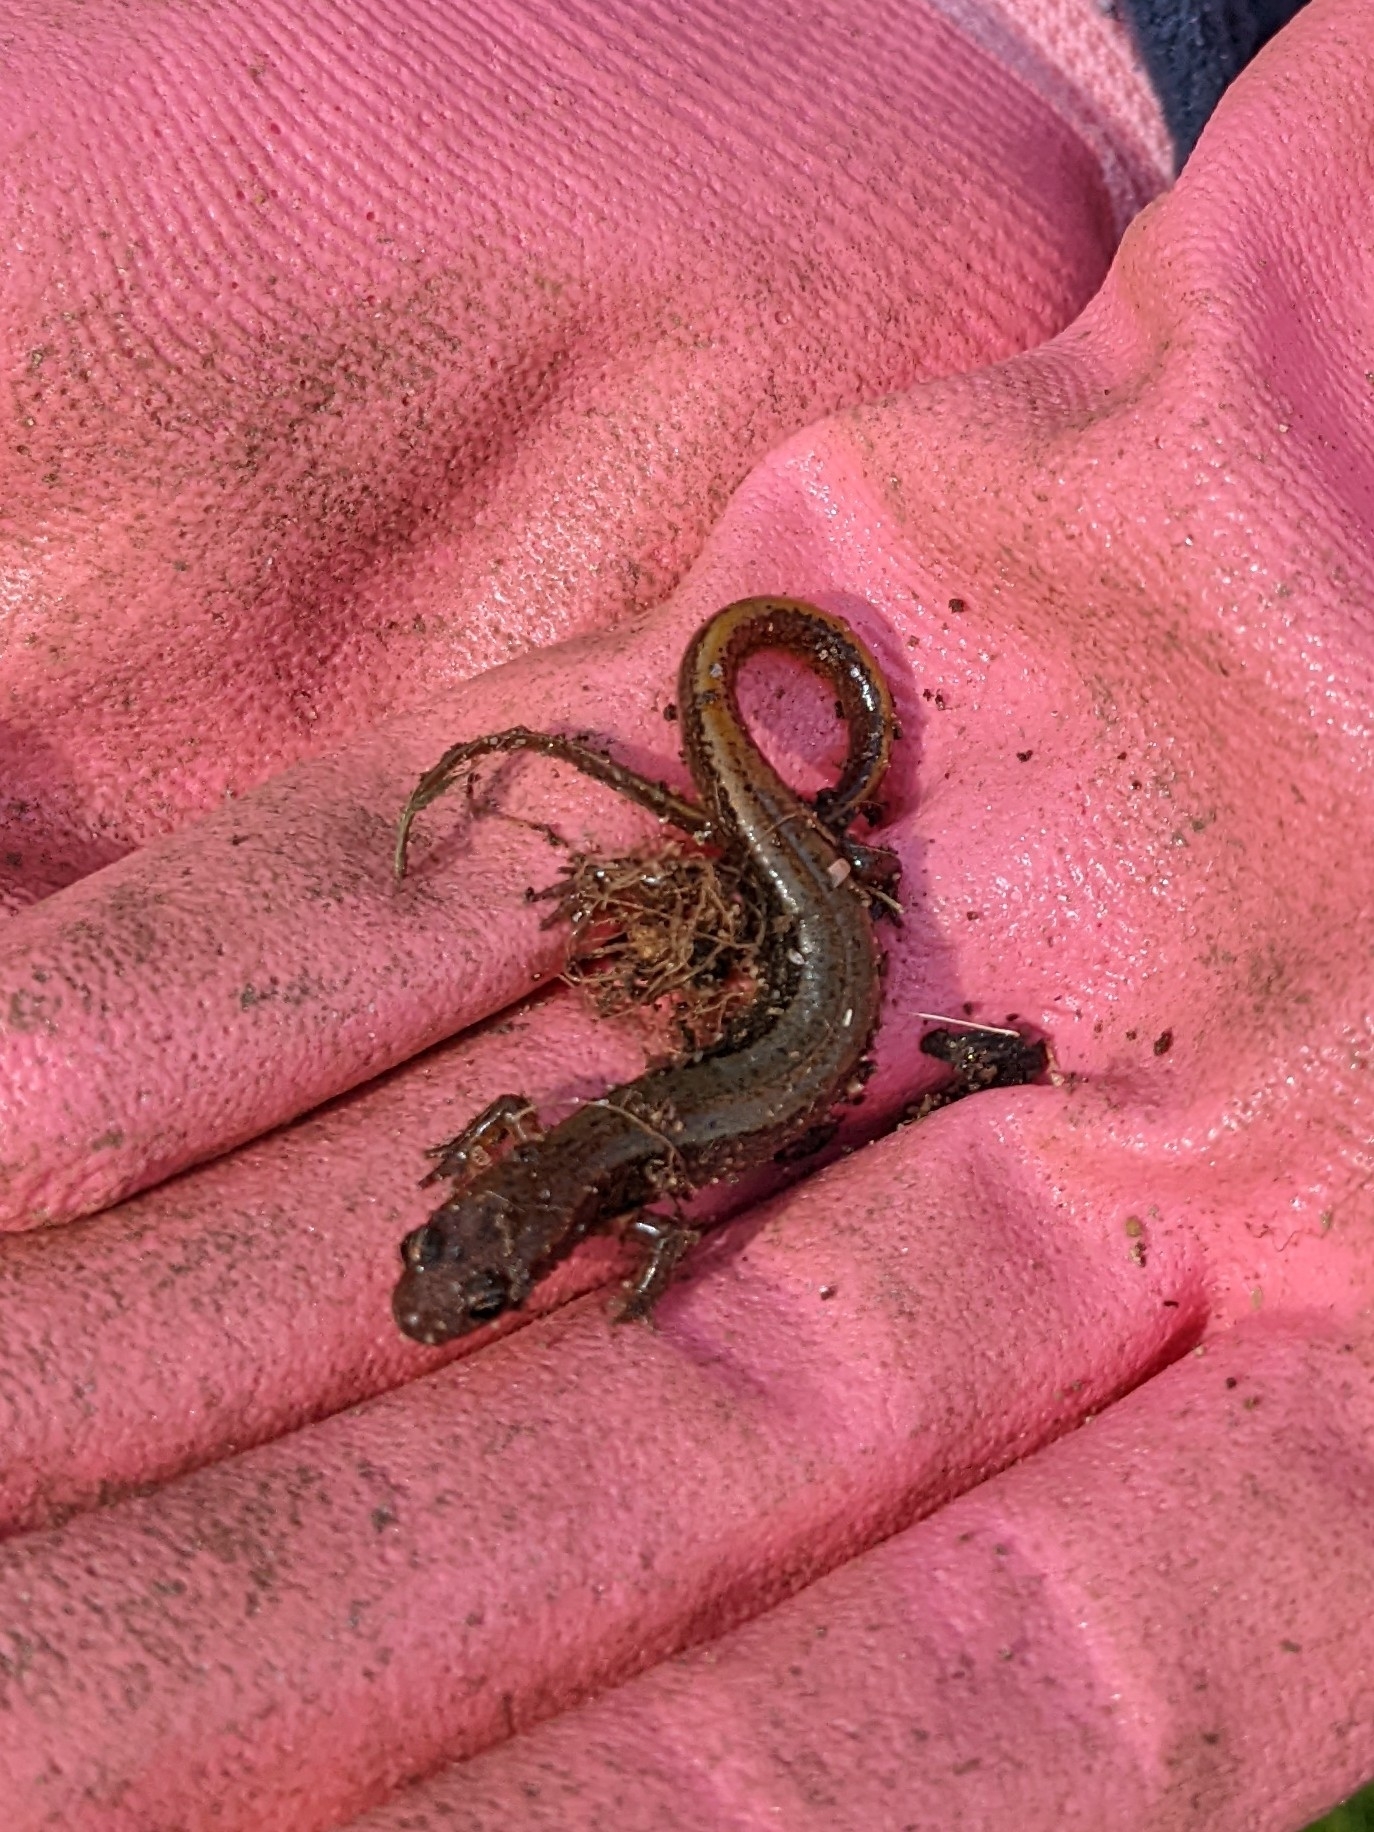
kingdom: Animalia
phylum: Chordata
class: Amphibia
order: Caudata
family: Plethodontidae
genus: Eurycea
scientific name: Eurycea bislineata
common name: Northern two-lined salamander
